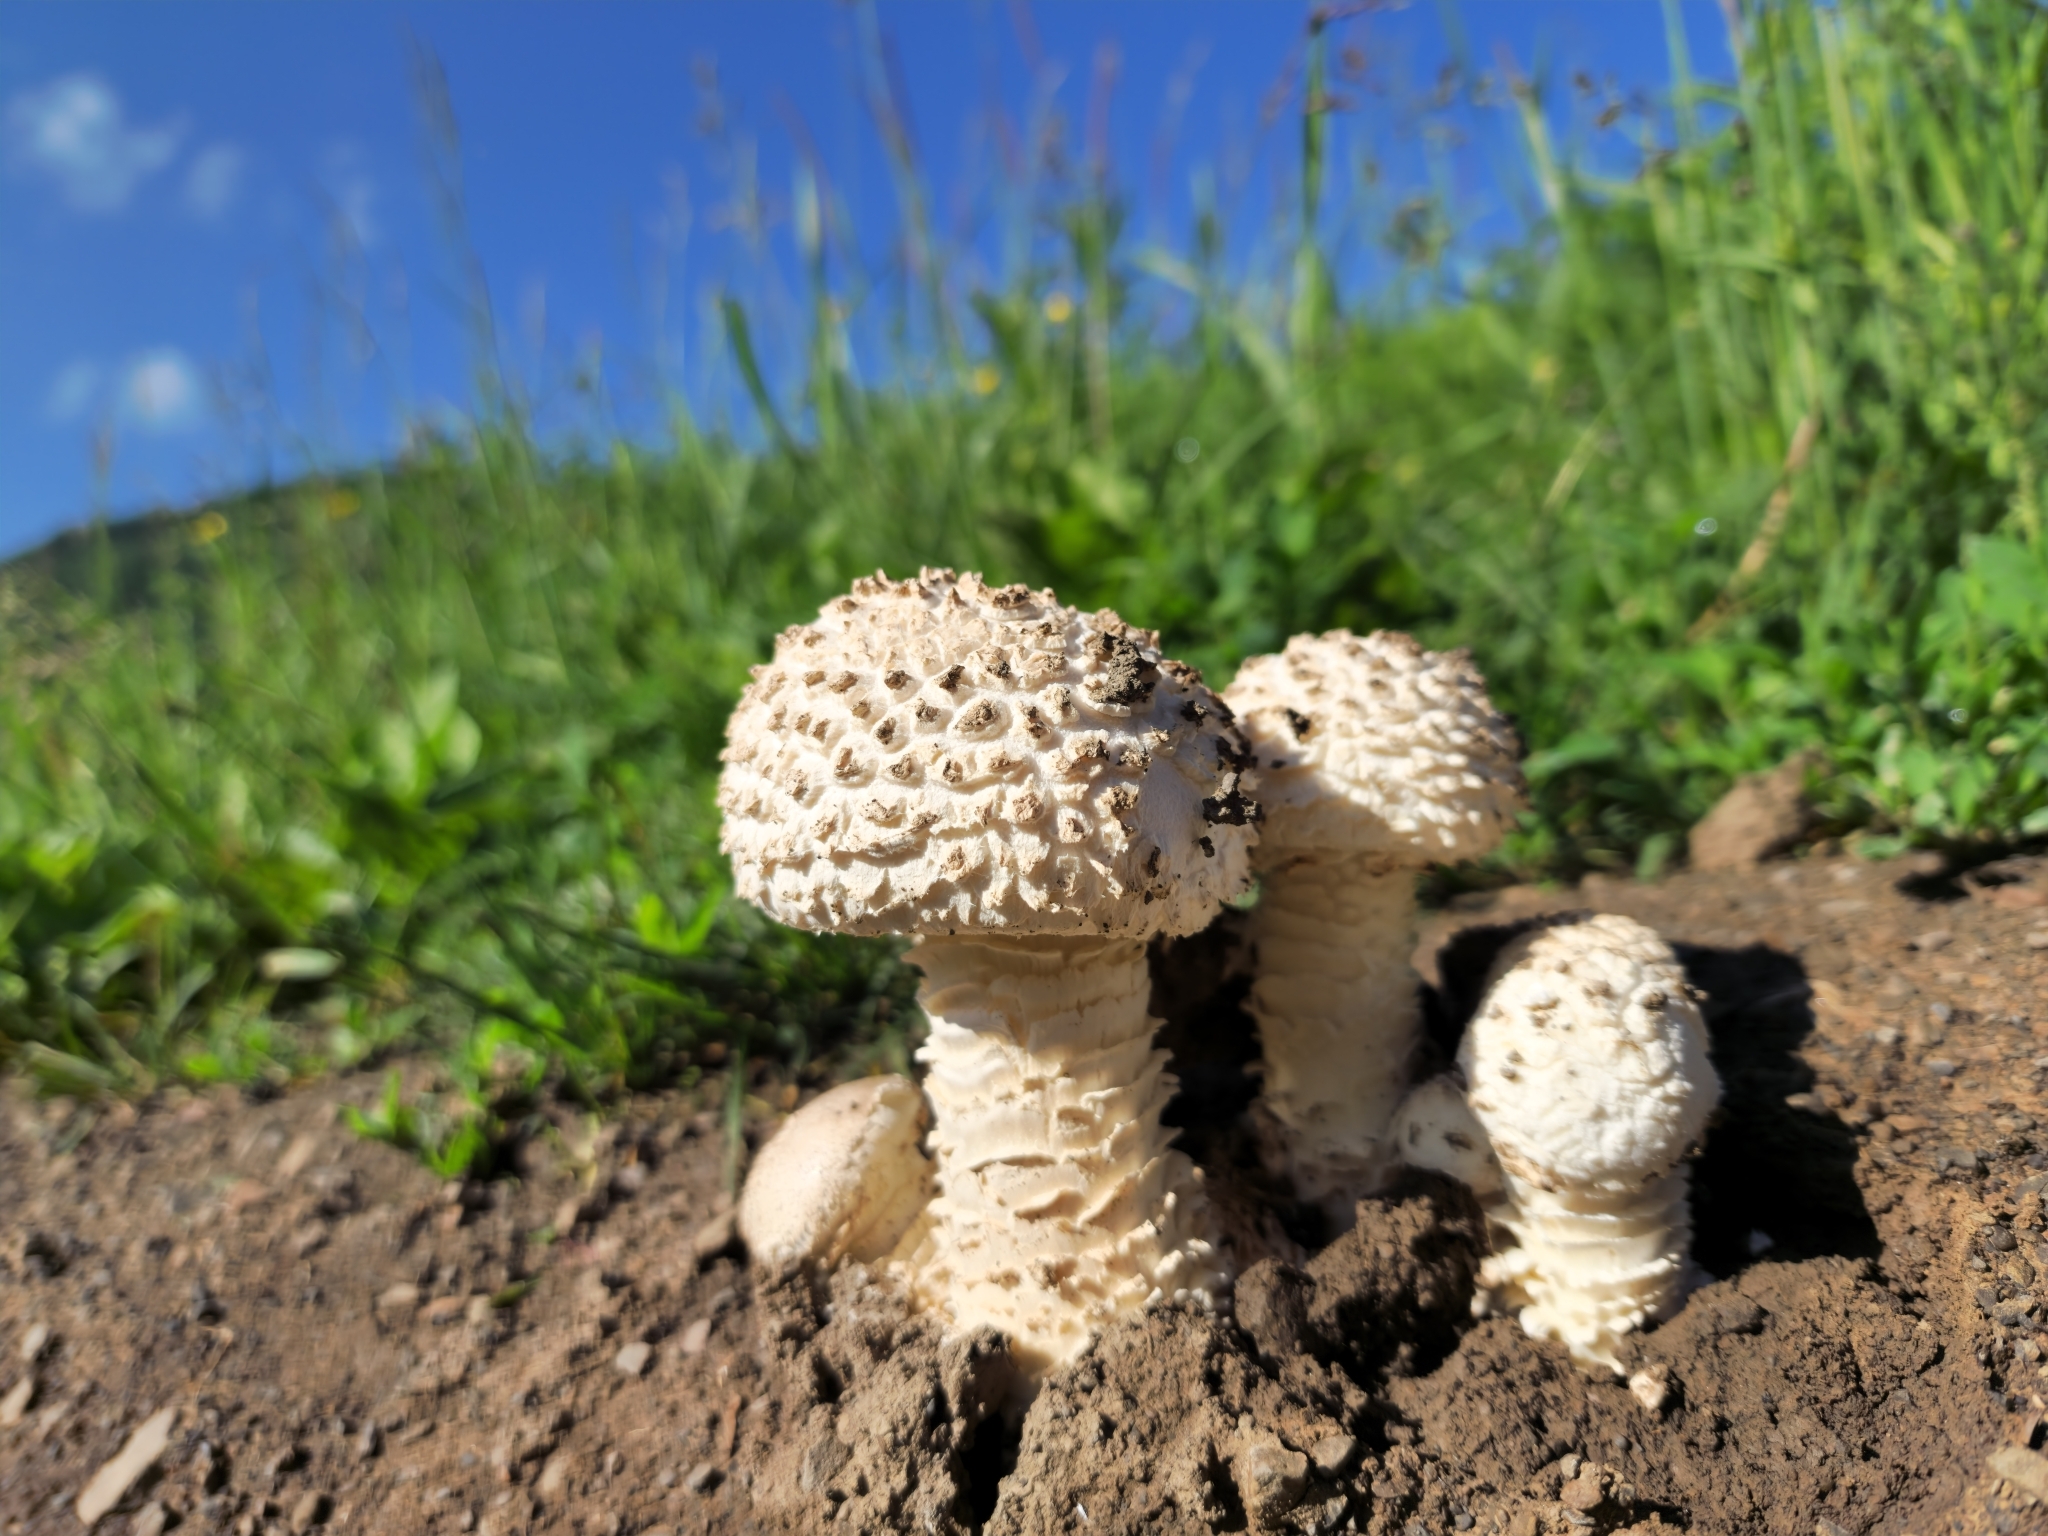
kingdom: Fungi
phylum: Basidiomycota
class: Agaricomycetes
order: Agaricales
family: Amanitaceae
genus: Amanita
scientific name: Amanita vittadinii
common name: Barefoot amanita
